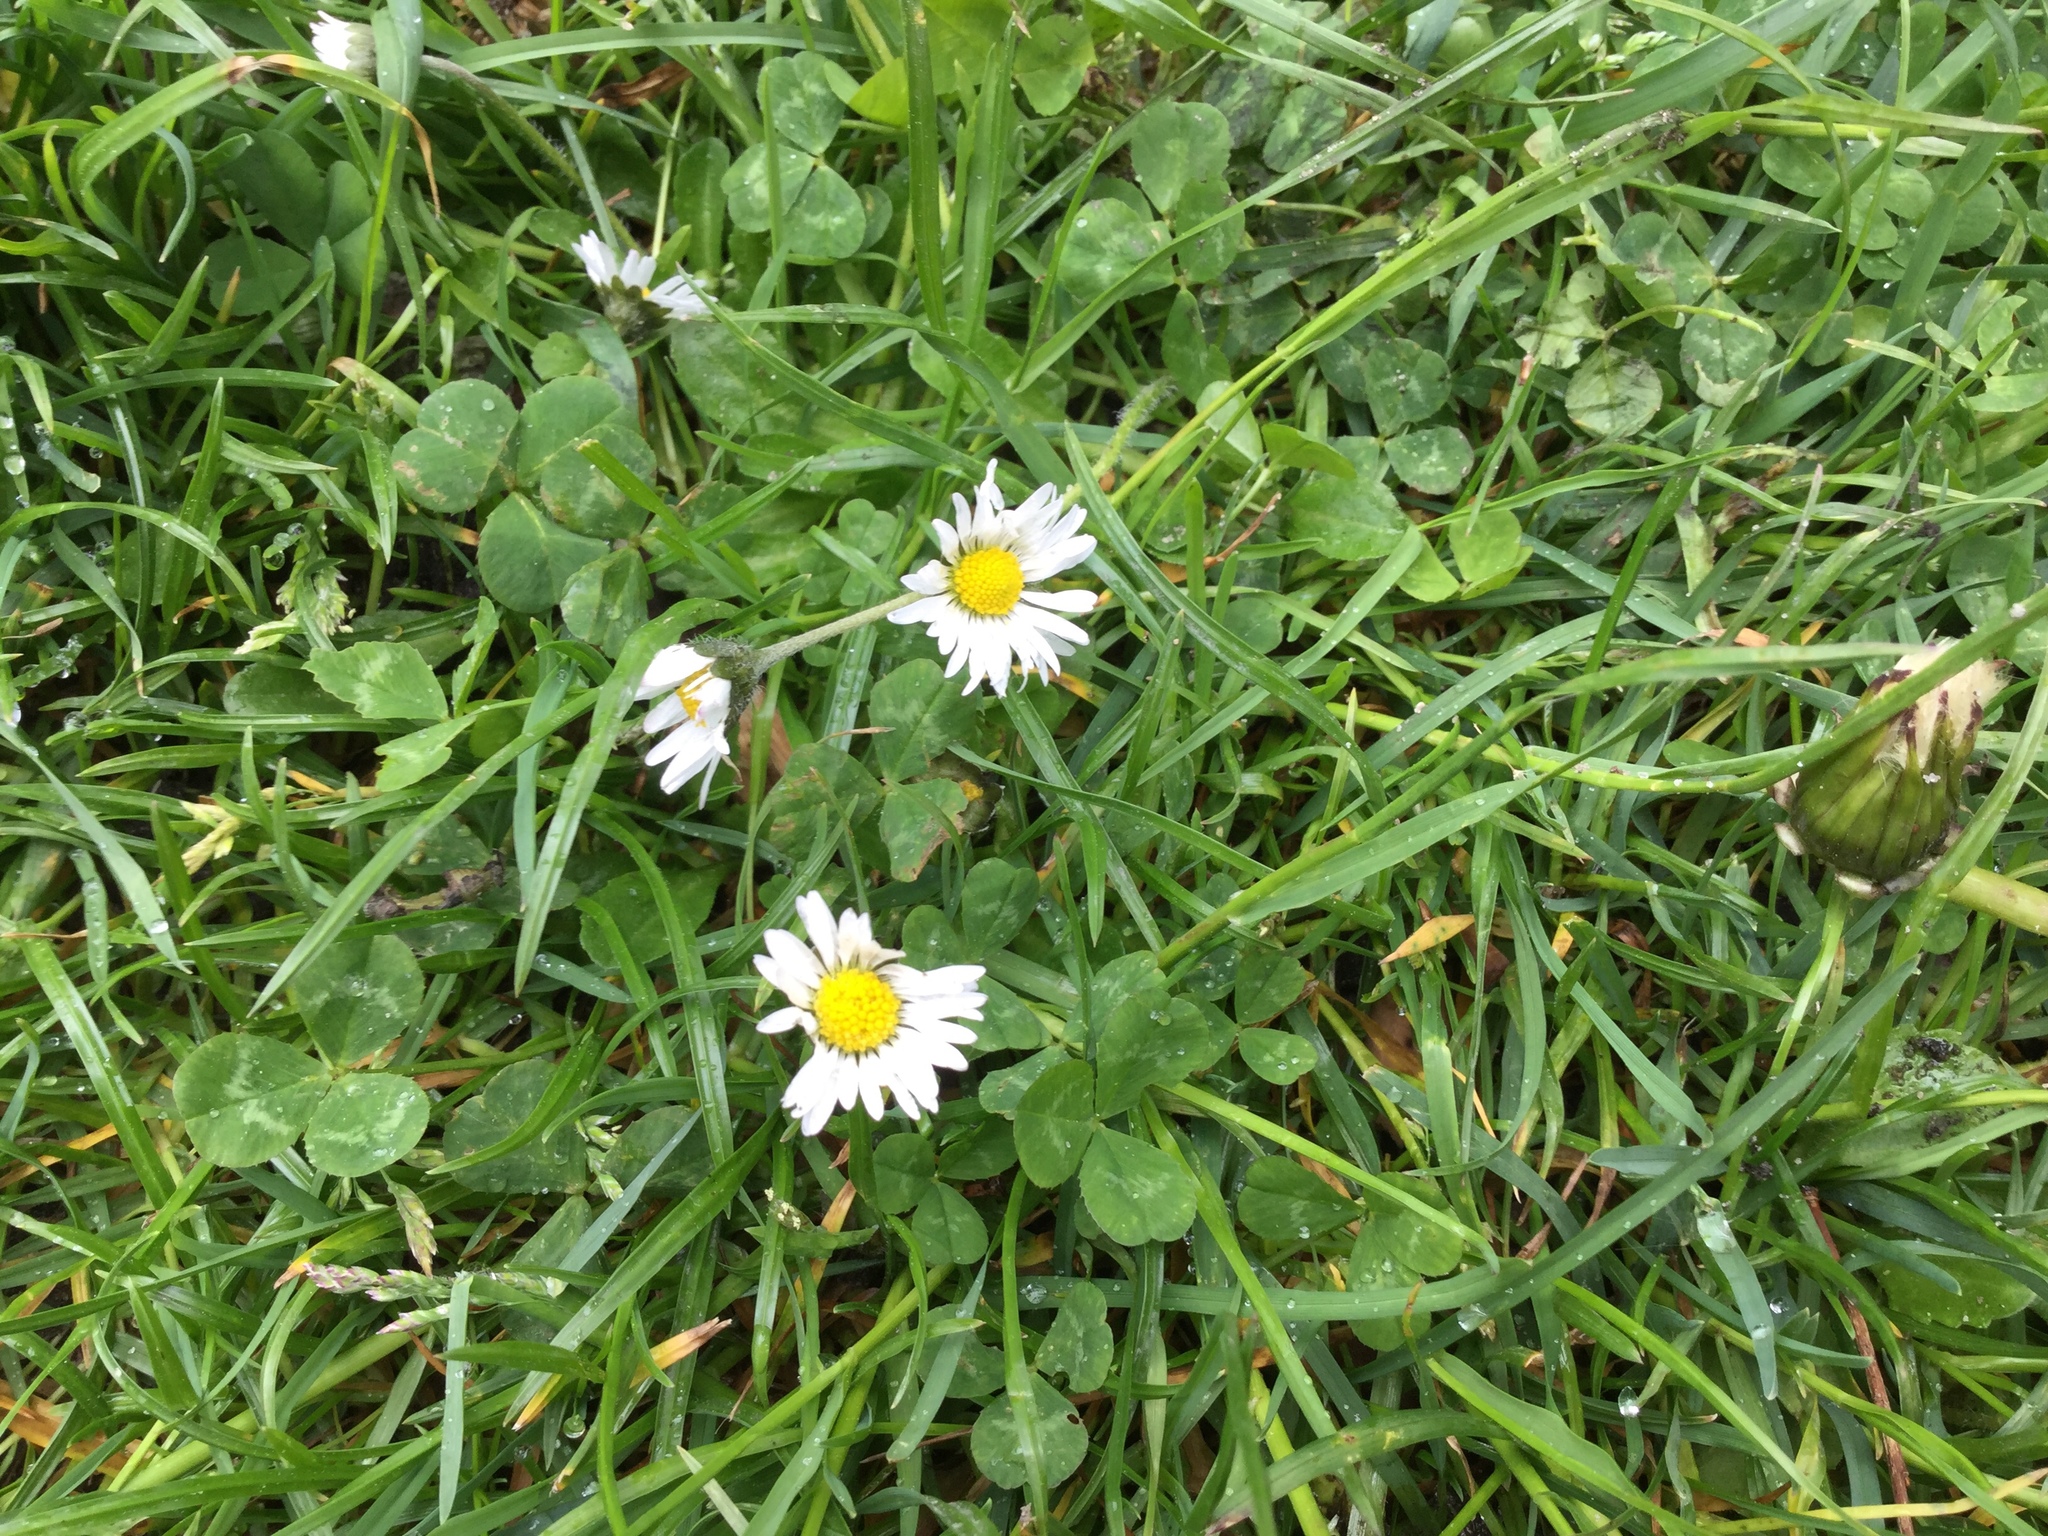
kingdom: Plantae
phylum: Tracheophyta
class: Magnoliopsida
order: Asterales
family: Asteraceae
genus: Bellis
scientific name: Bellis perennis
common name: Lawndaisy
